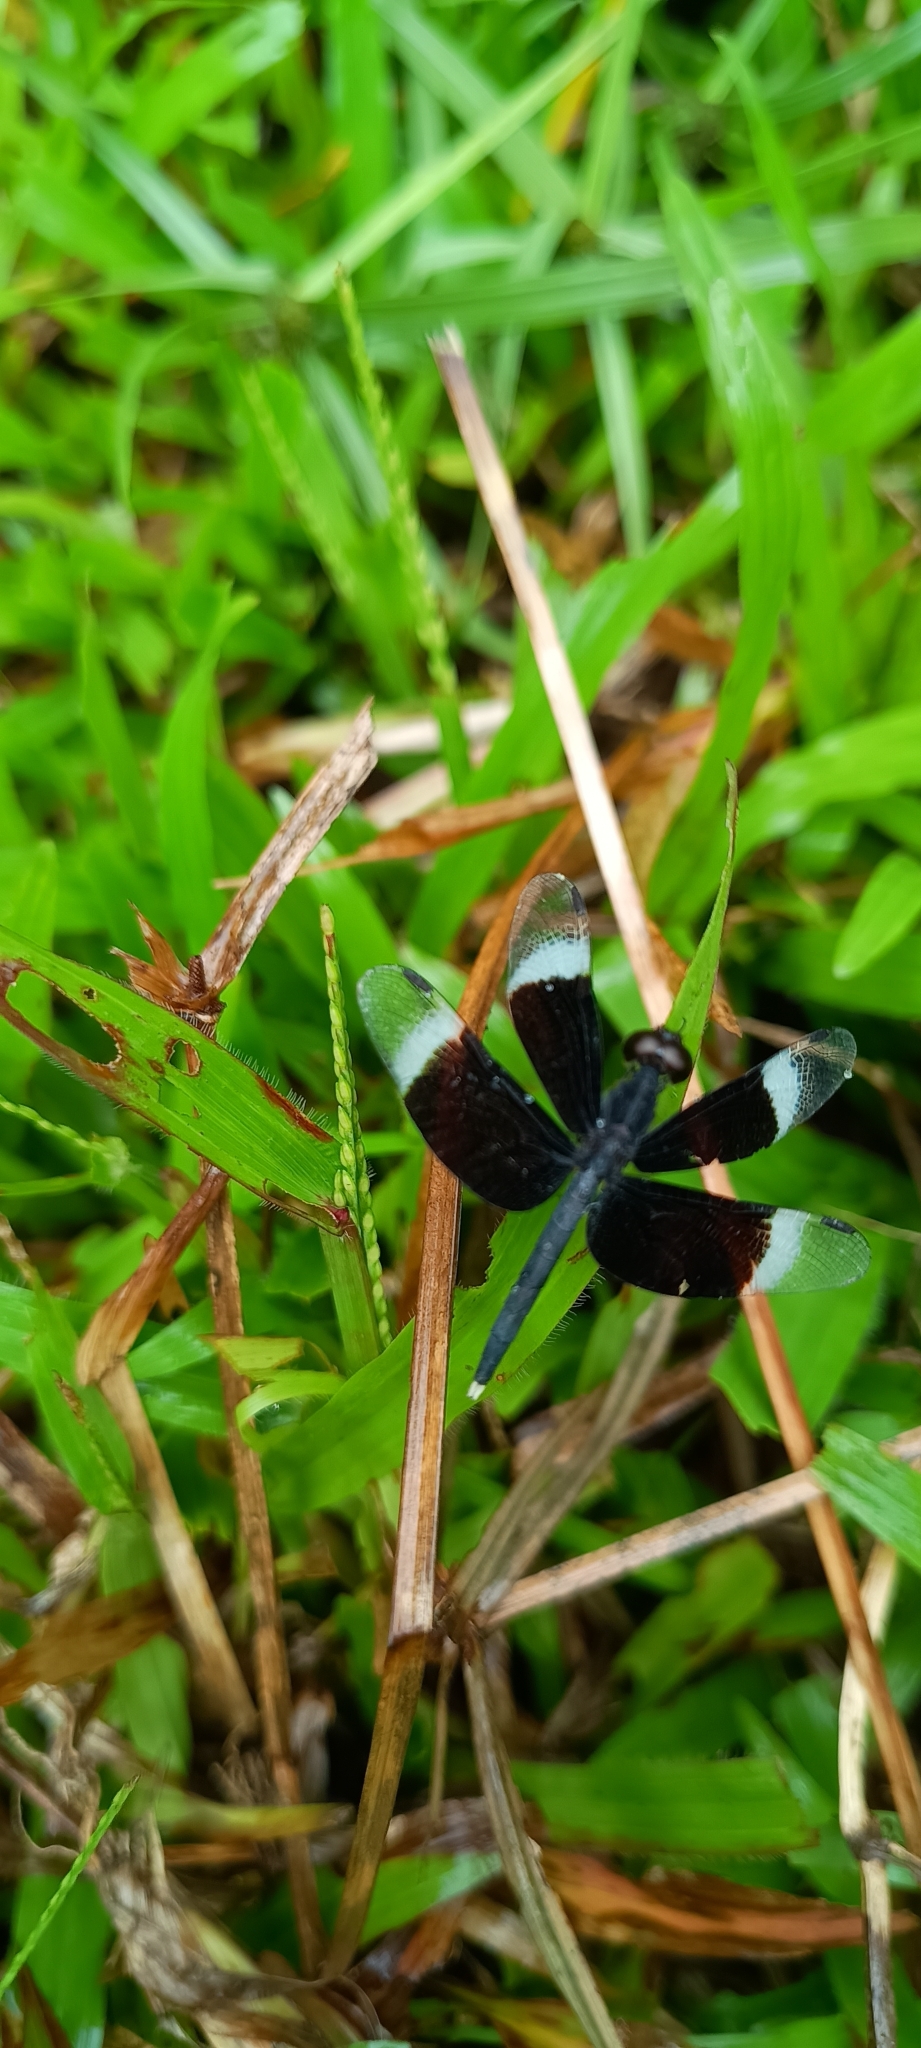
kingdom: Animalia
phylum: Arthropoda
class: Insecta
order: Odonata
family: Libellulidae
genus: Neurothemis
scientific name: Neurothemis tullia
